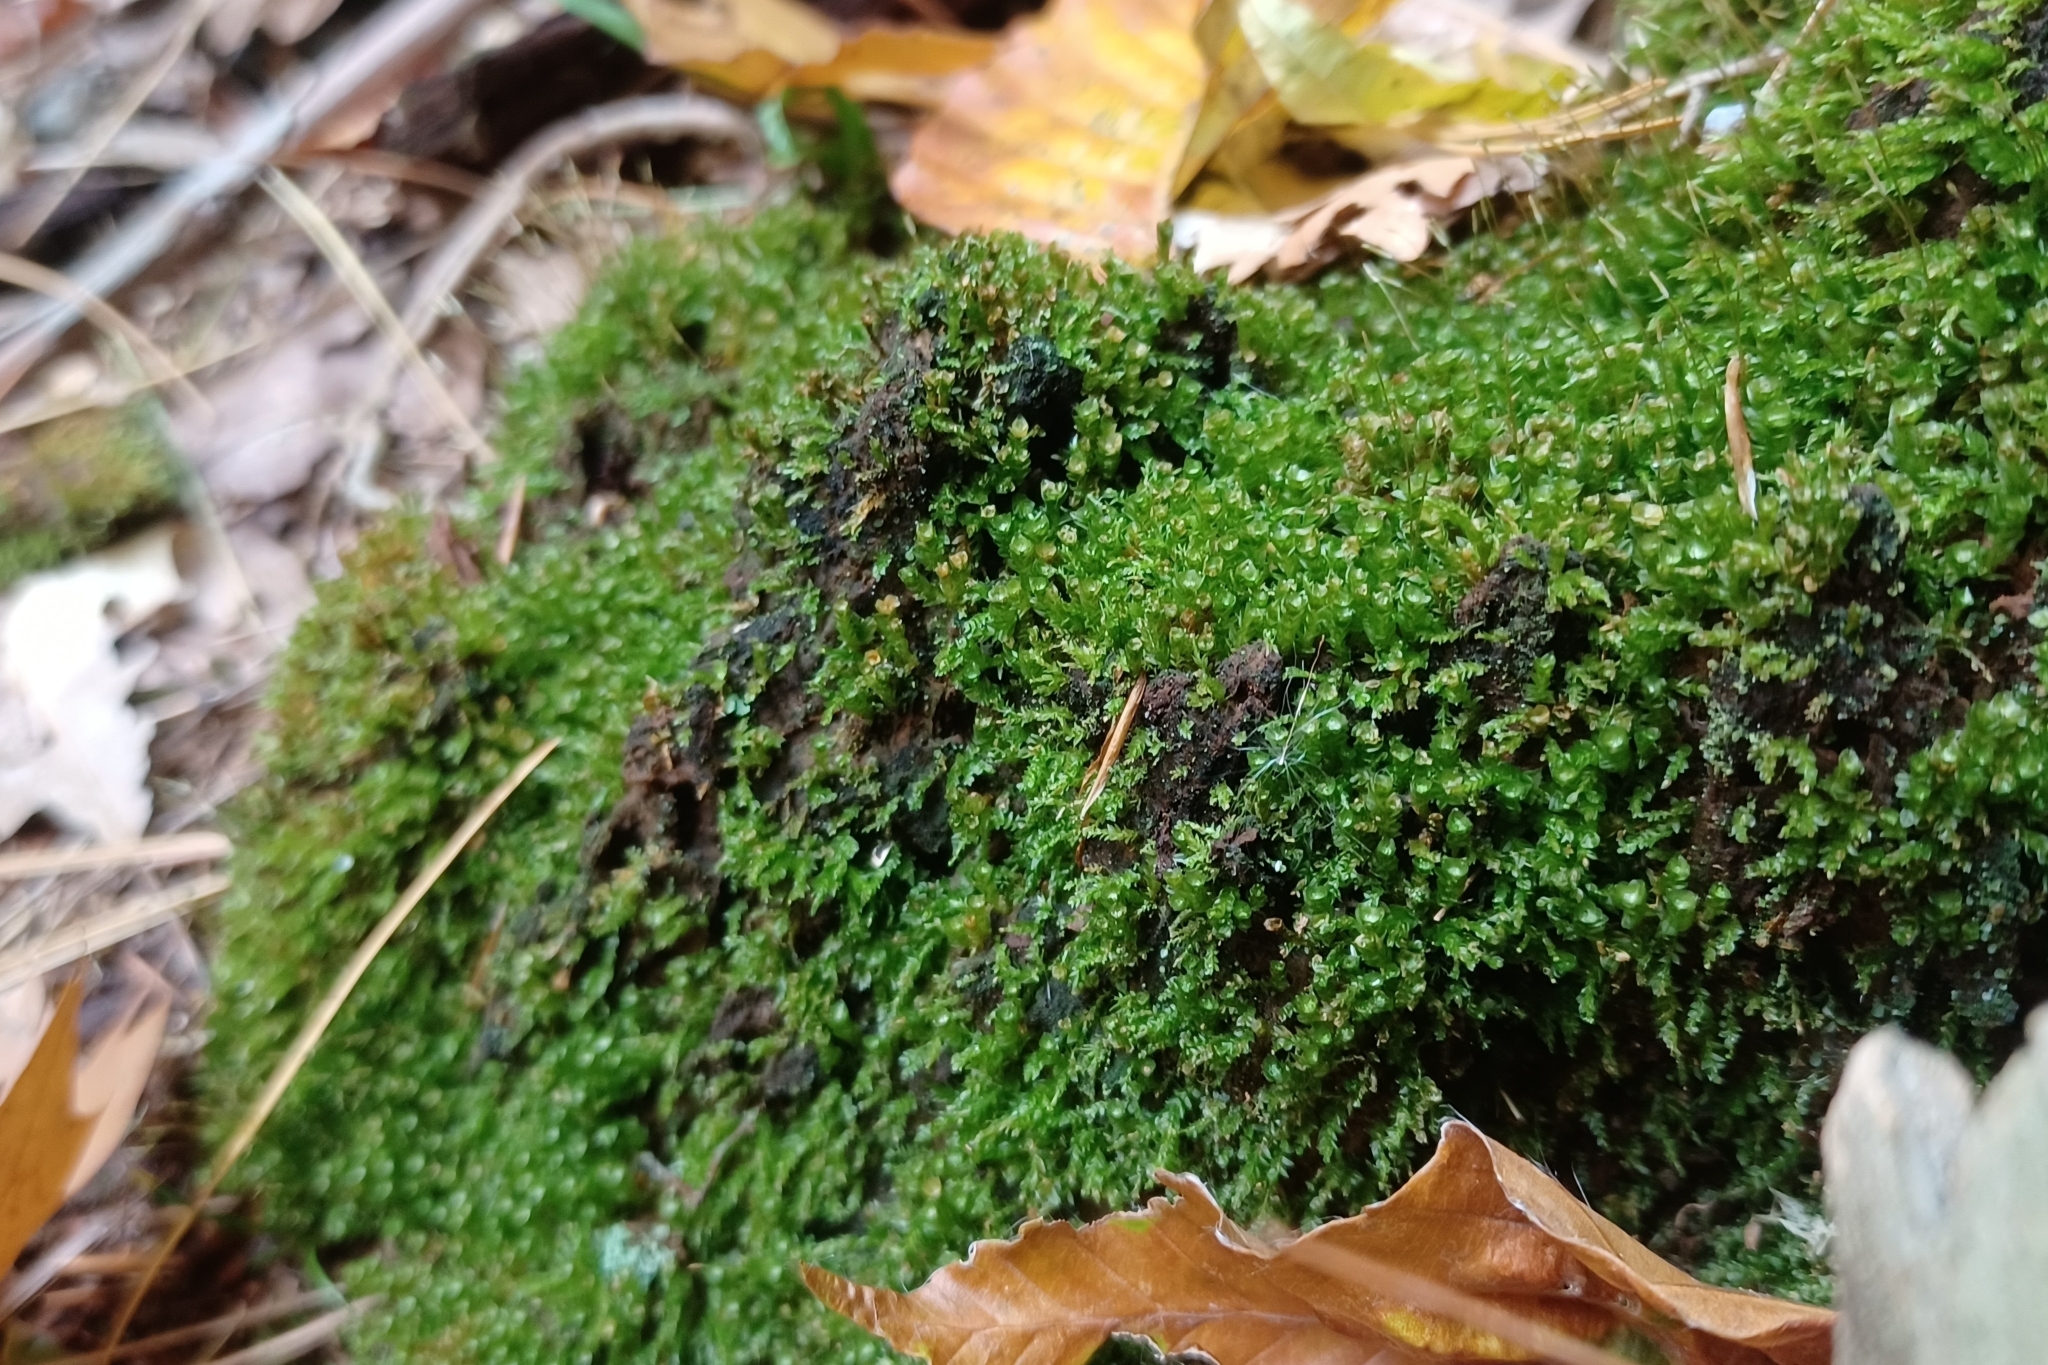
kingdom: Plantae
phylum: Bryophyta
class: Polytrichopsida
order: Tetraphidales
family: Tetraphidaceae
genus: Tetraphis
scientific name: Tetraphis pellucida
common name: Common four-toothed moss
